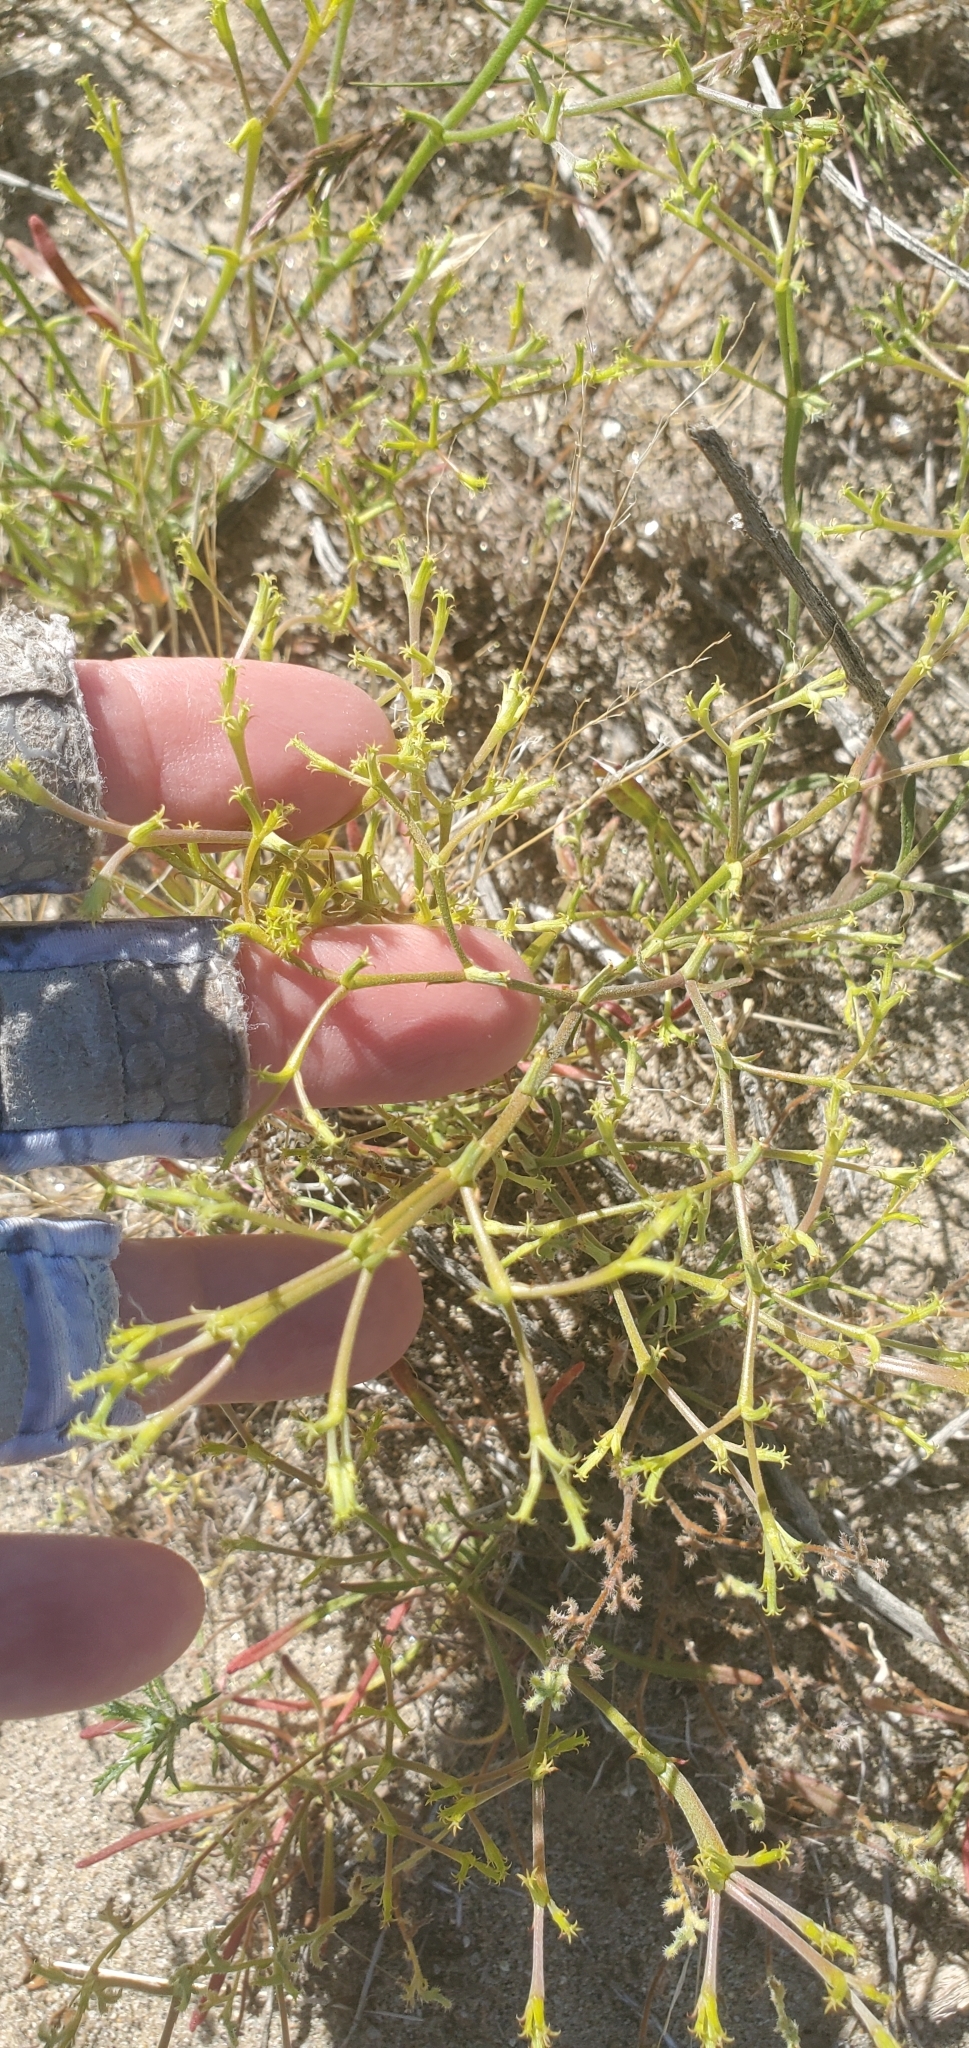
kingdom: Plantae
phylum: Tracheophyta
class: Magnoliopsida
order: Caryophyllales
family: Polygonaceae
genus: Chorizanthe
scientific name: Chorizanthe brevicornu
